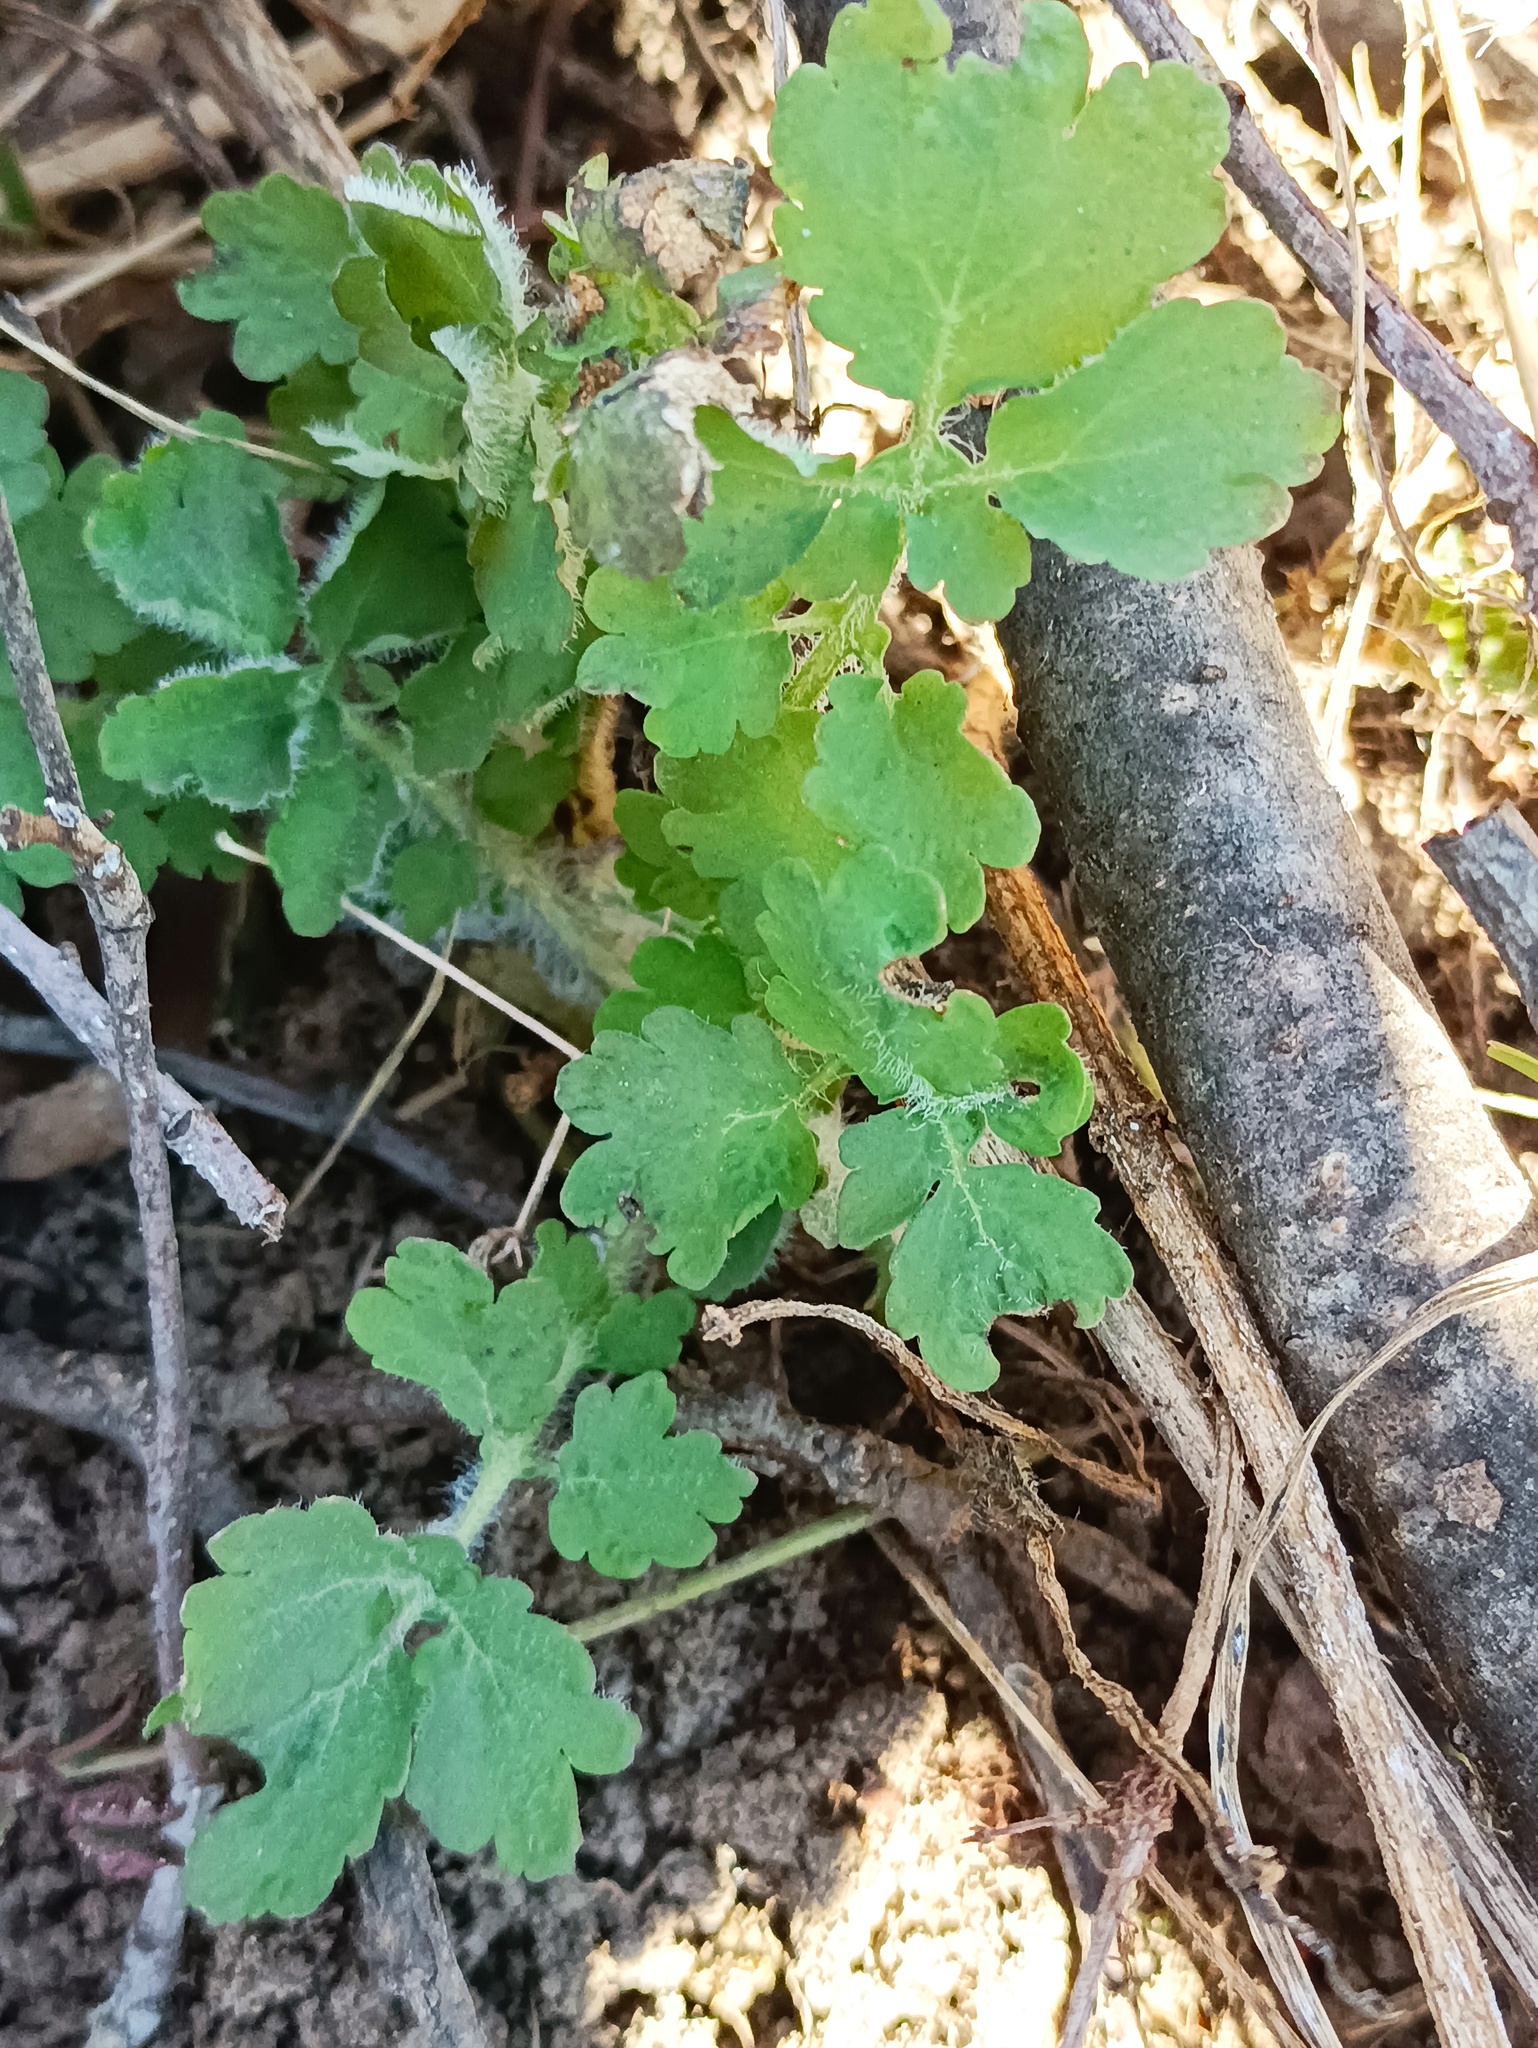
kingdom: Plantae
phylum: Tracheophyta
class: Magnoliopsida
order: Ranunculales
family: Papaveraceae
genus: Chelidonium
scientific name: Chelidonium majus
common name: Greater celandine
